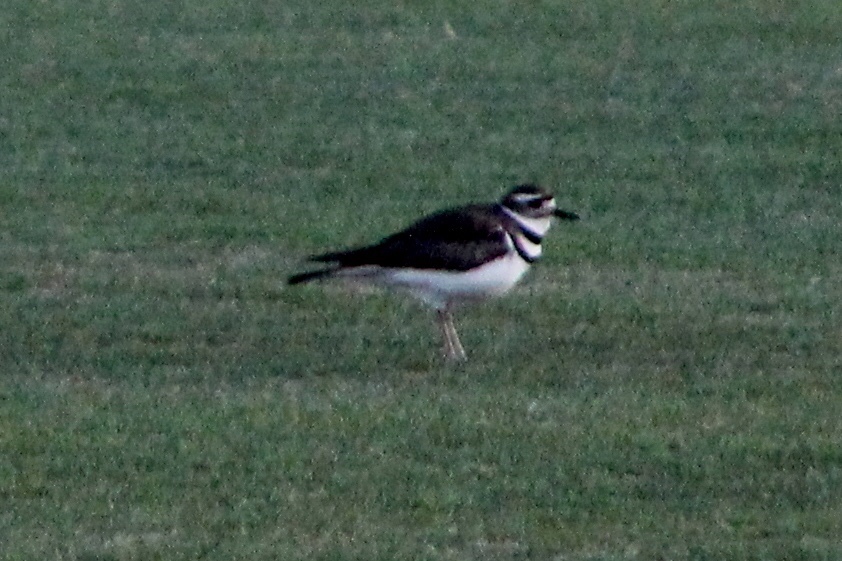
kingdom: Animalia
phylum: Chordata
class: Aves
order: Charadriiformes
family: Charadriidae
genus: Charadrius
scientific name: Charadrius vociferus
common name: Killdeer
